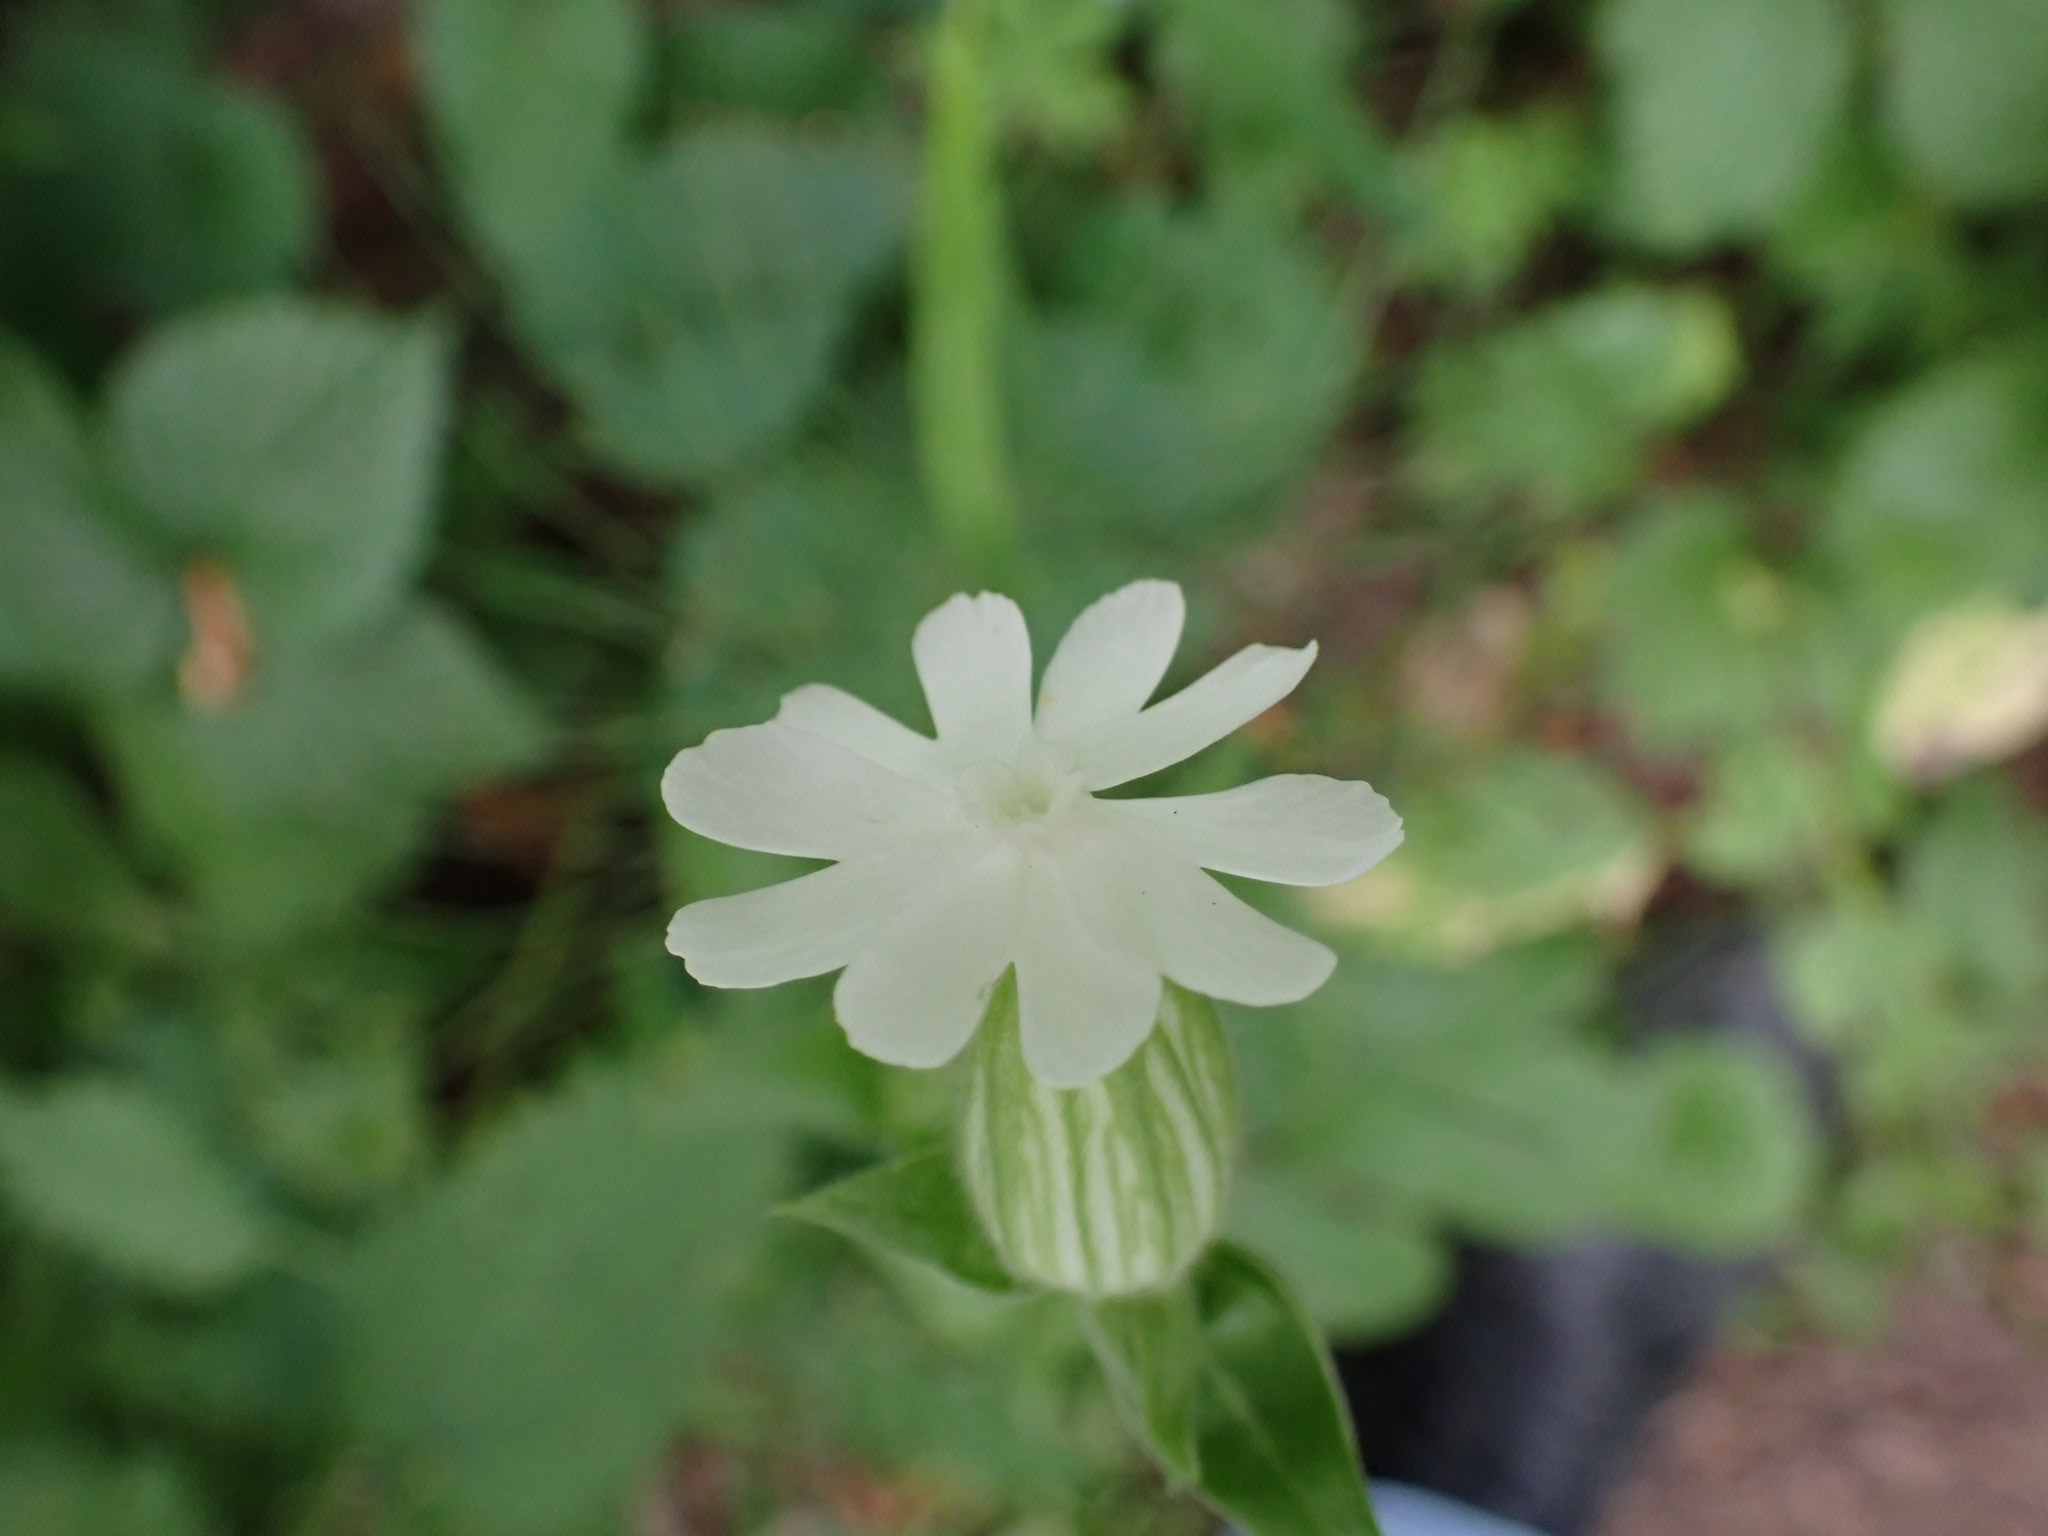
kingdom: Plantae
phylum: Tracheophyta
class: Magnoliopsida
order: Caryophyllales
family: Caryophyllaceae
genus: Silene
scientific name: Silene latifolia
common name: White campion
